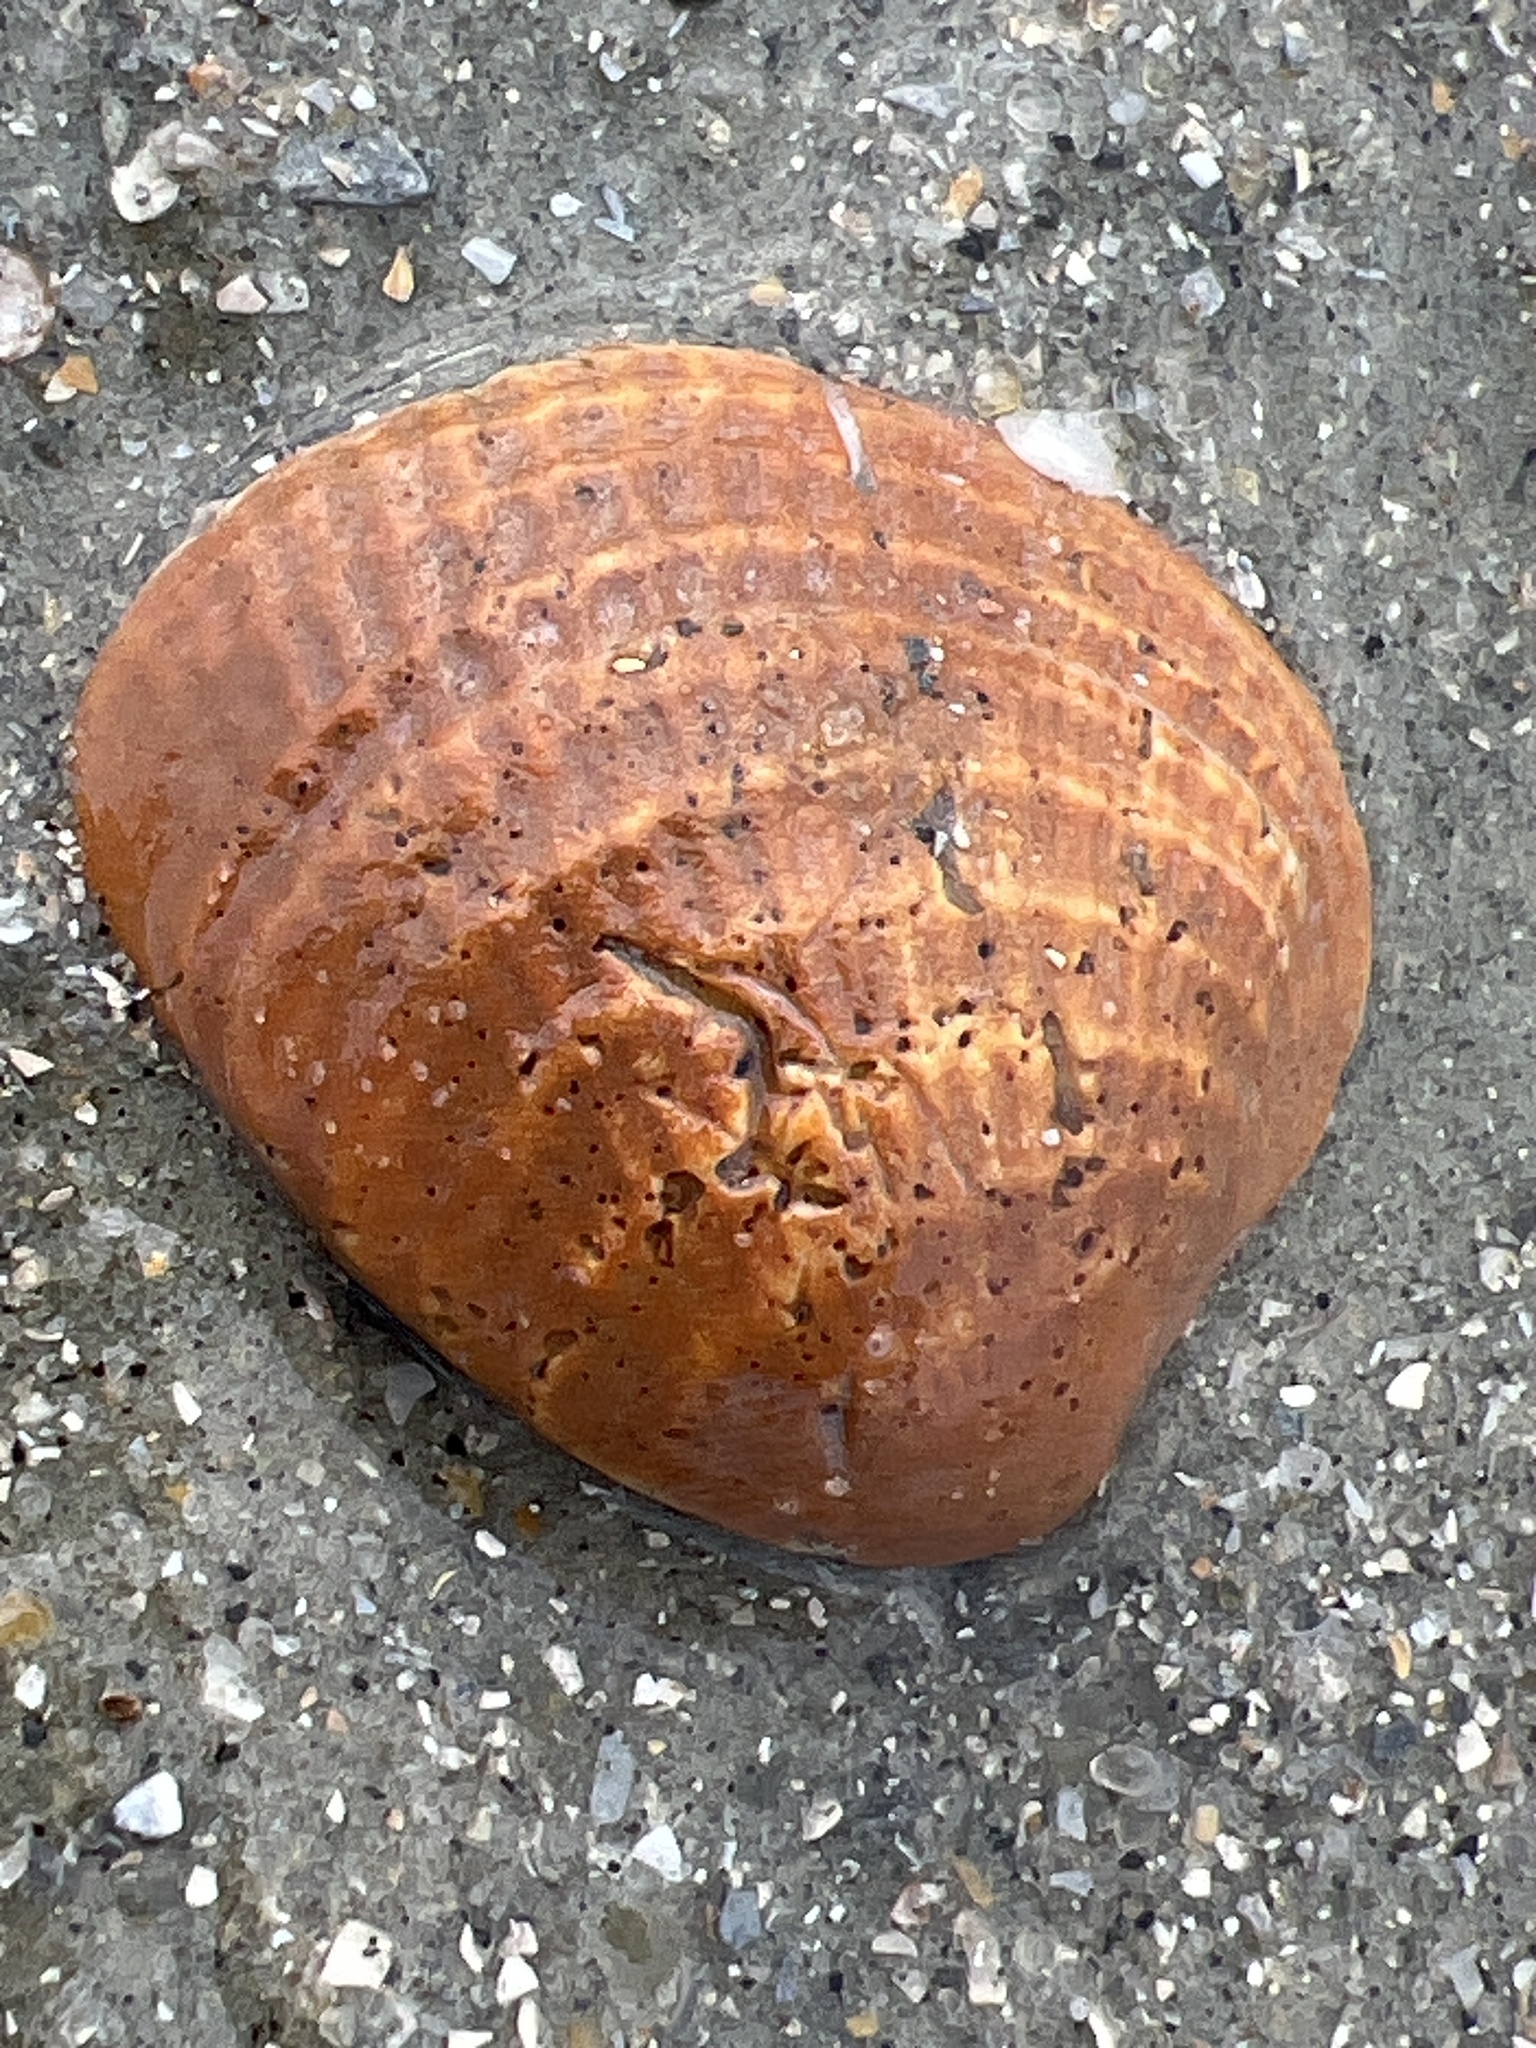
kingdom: Animalia
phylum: Mollusca
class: Bivalvia
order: Venerida
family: Veneridae
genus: Chione
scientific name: Chione elevata
